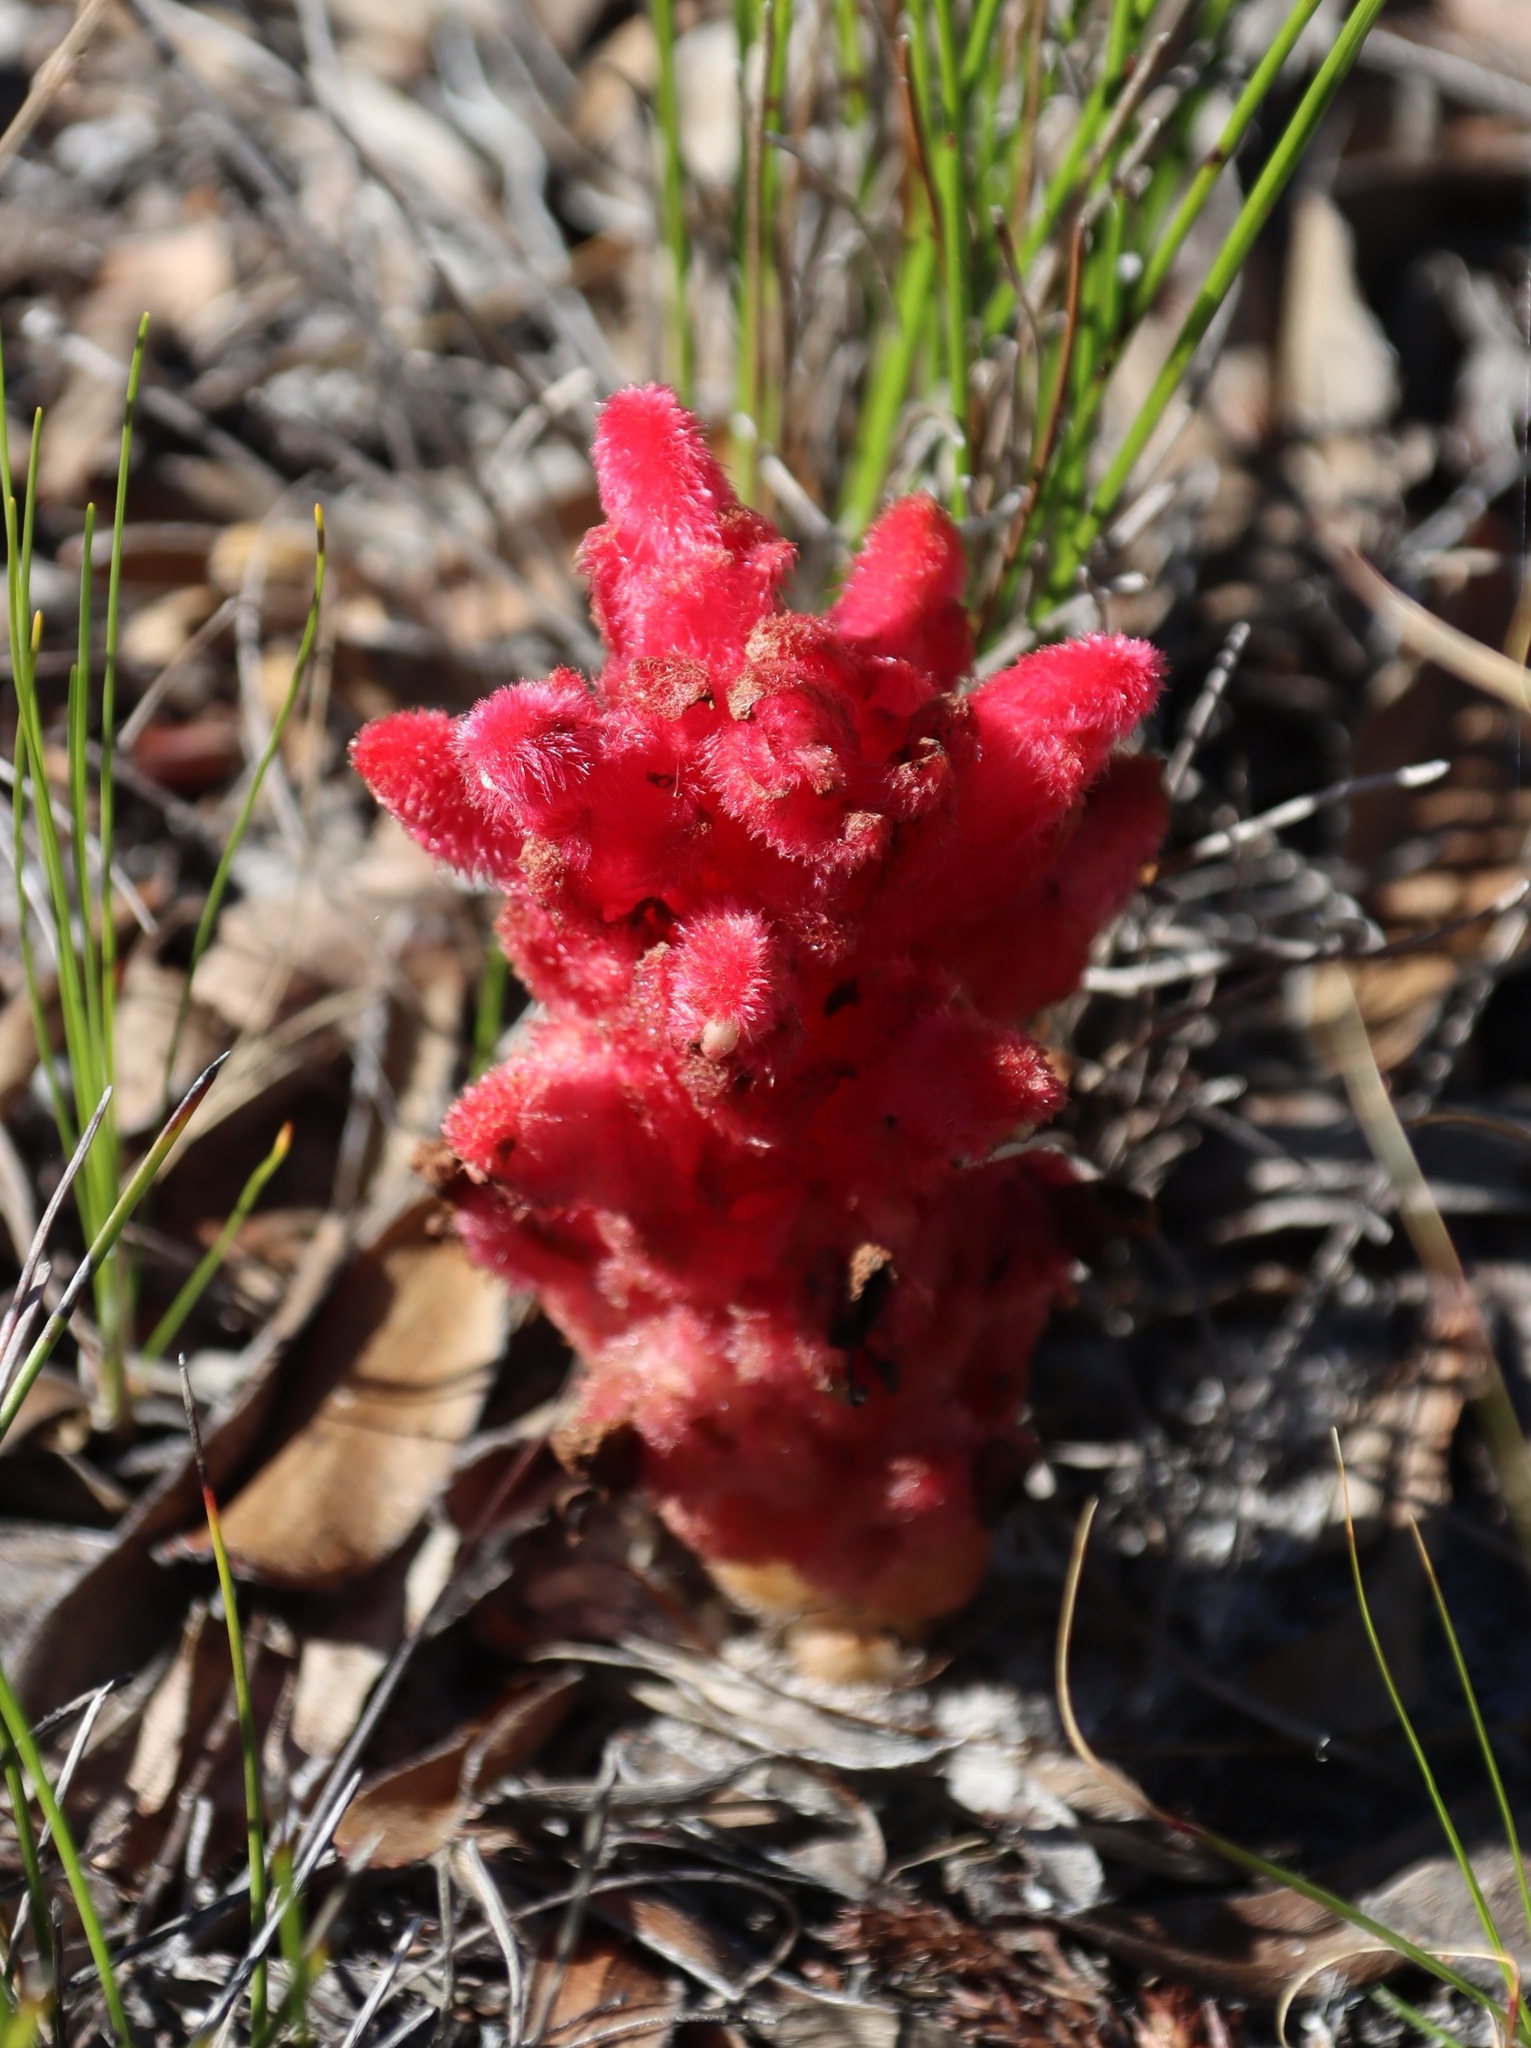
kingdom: Plantae
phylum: Tracheophyta
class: Magnoliopsida
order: Lamiales
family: Orobanchaceae
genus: Hyobanche
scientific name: Hyobanche sanguinea
